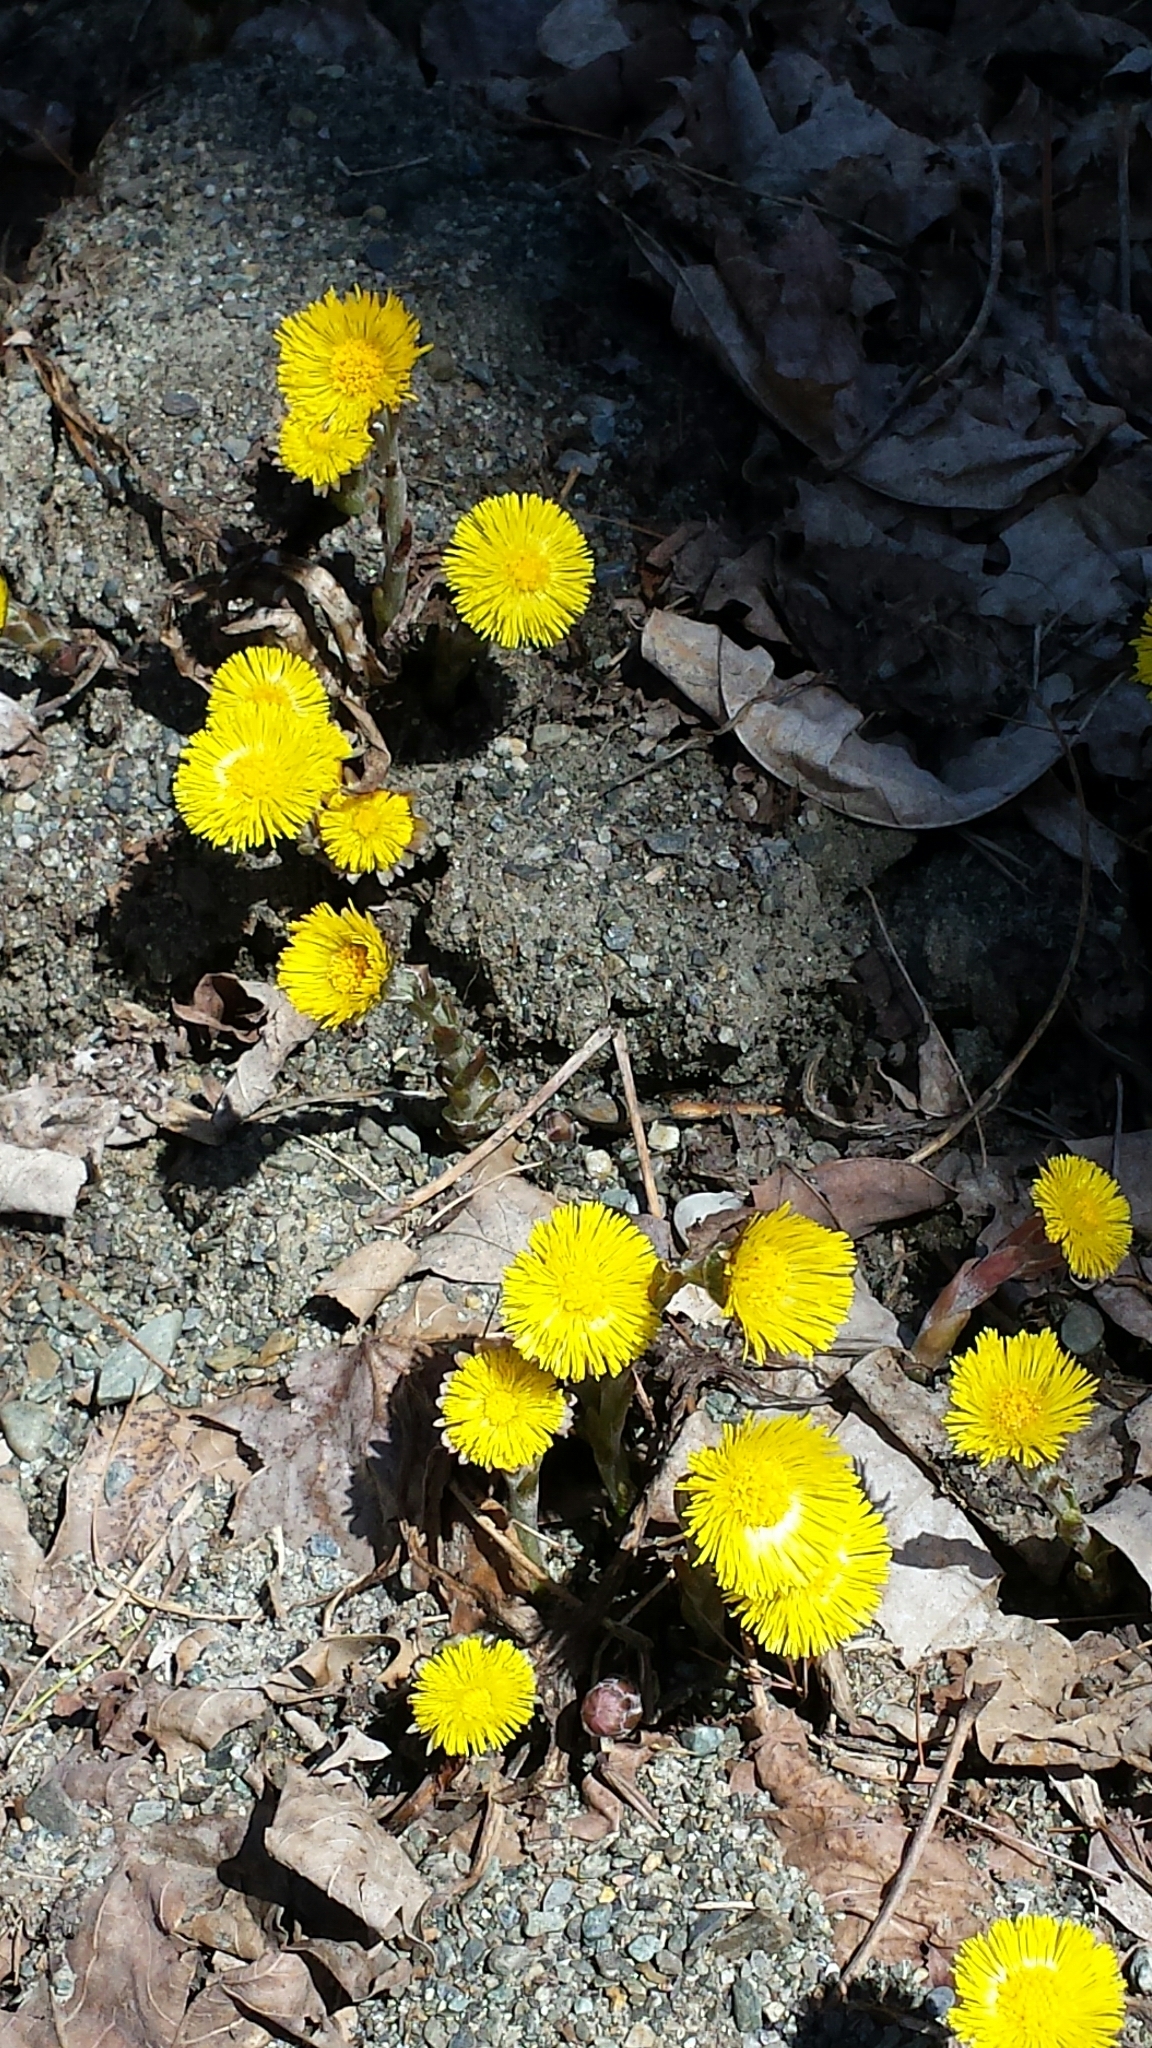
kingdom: Plantae
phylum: Tracheophyta
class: Magnoliopsida
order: Asterales
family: Asteraceae
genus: Tussilago
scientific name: Tussilago farfara
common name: Coltsfoot
